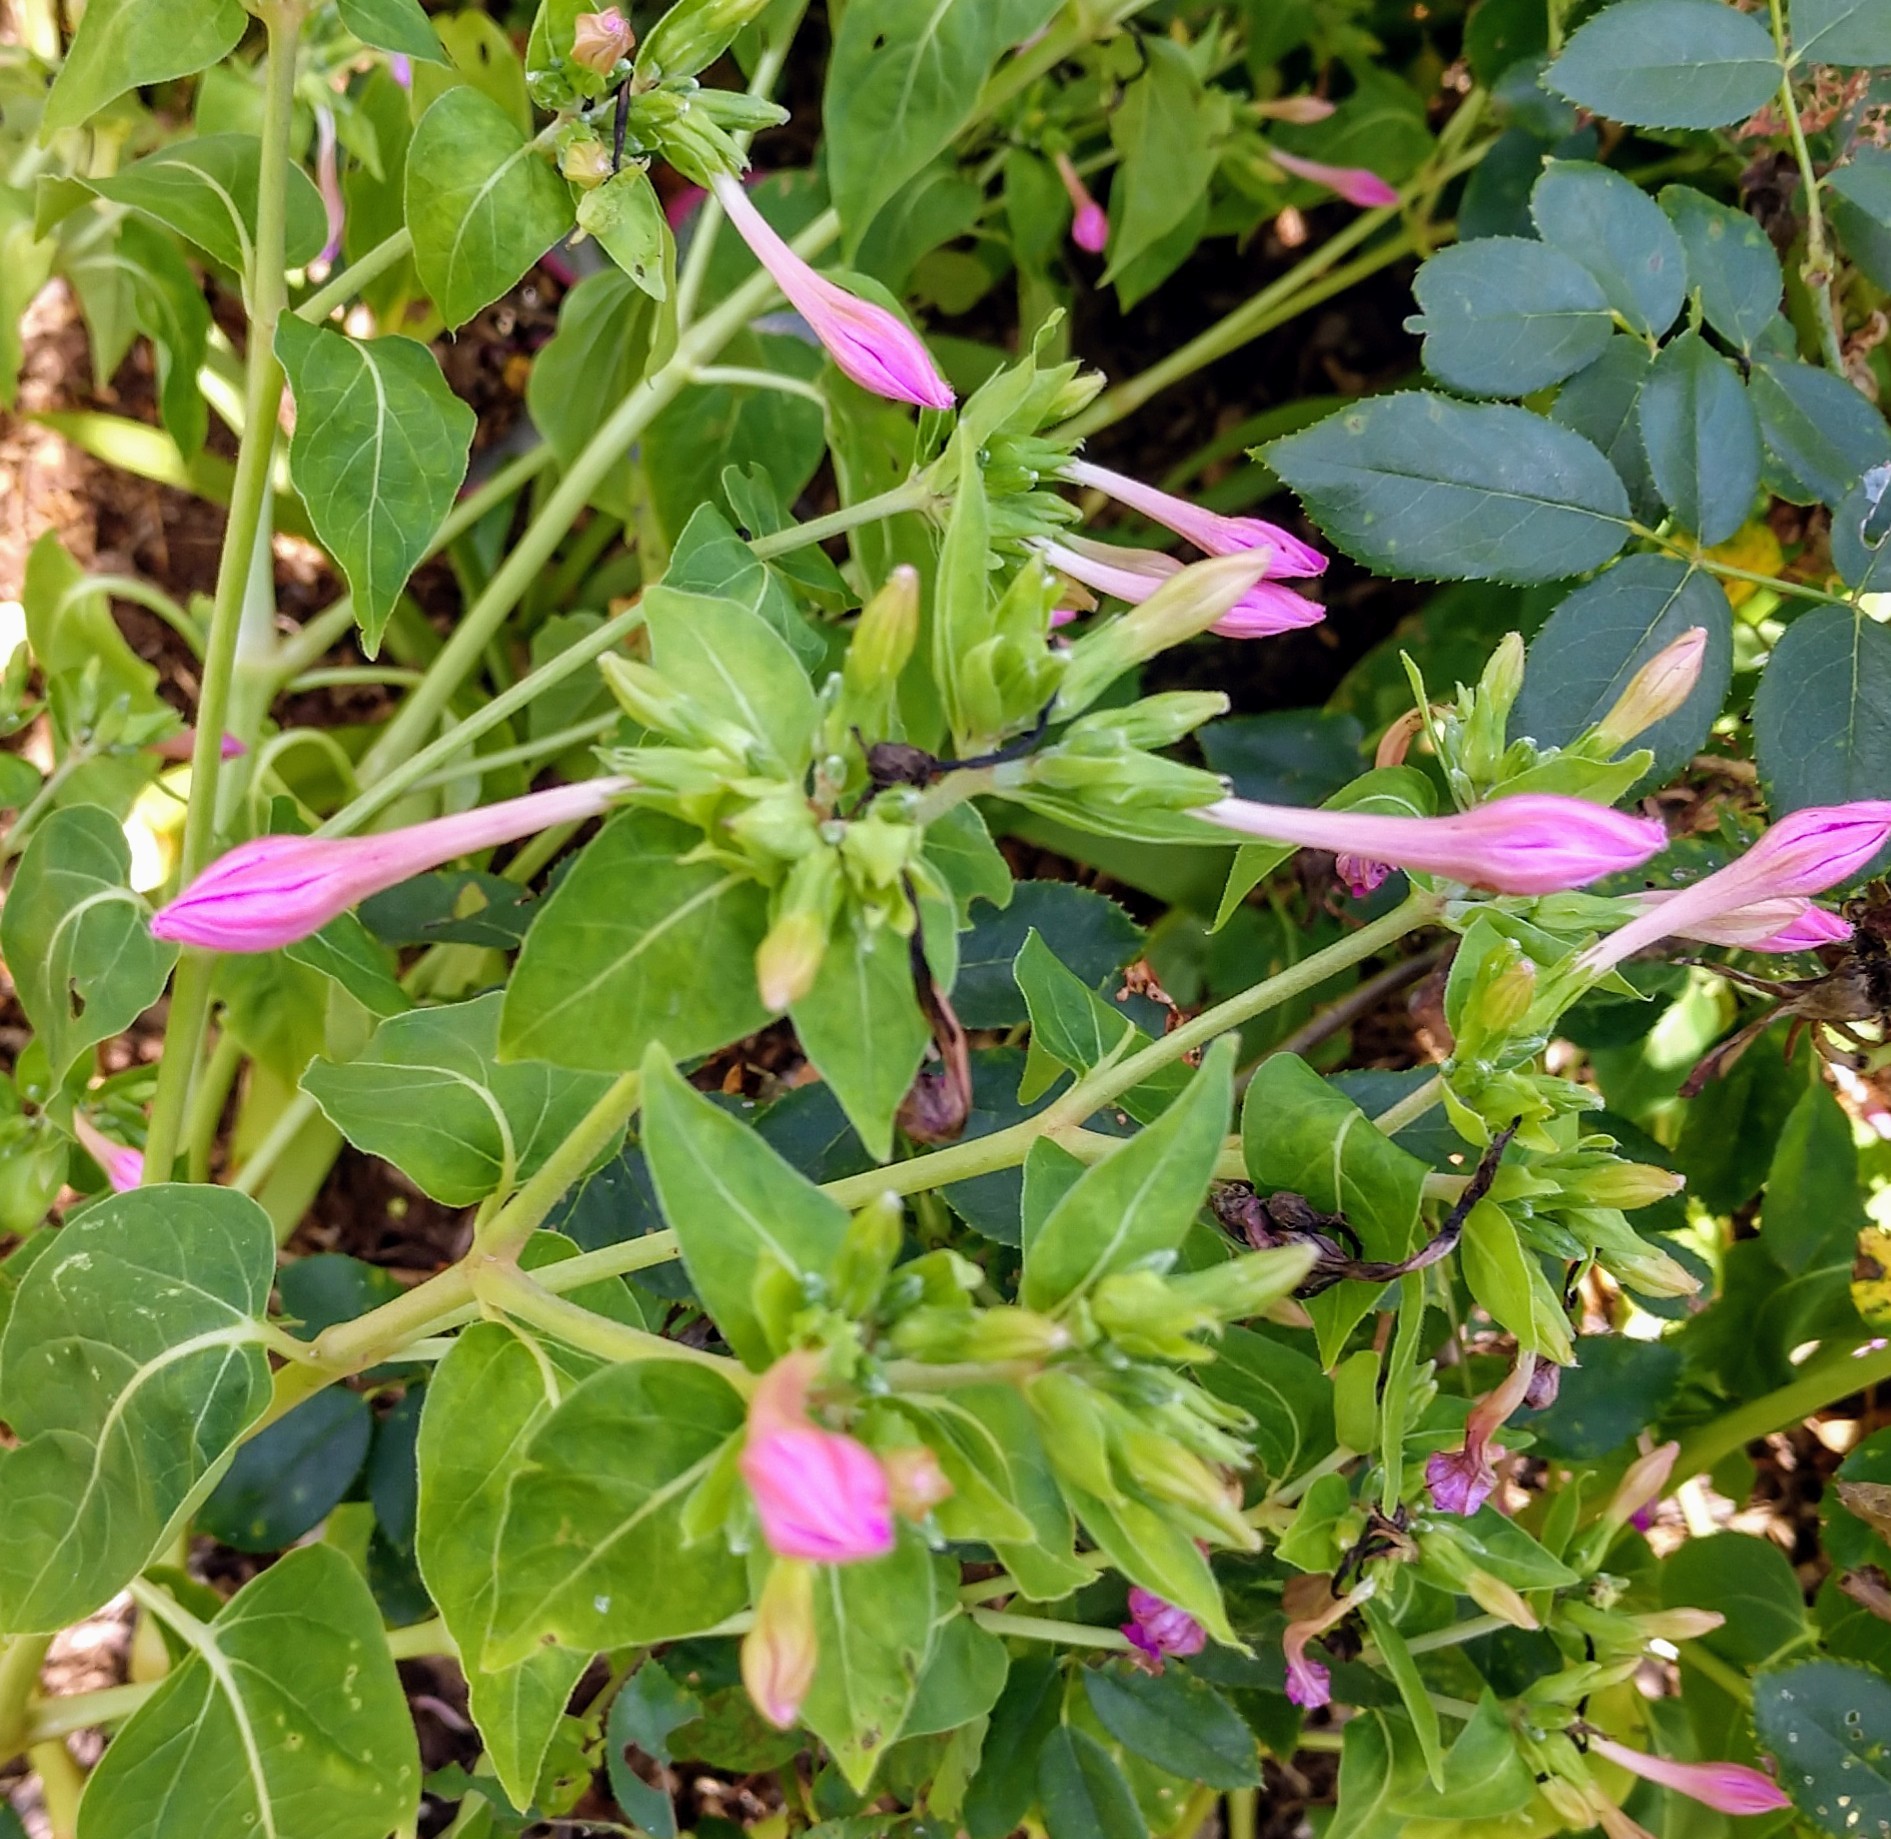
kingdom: Plantae
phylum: Tracheophyta
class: Magnoliopsida
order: Caryophyllales
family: Nyctaginaceae
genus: Mirabilis
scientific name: Mirabilis jalapa
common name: Marvel-of-peru
